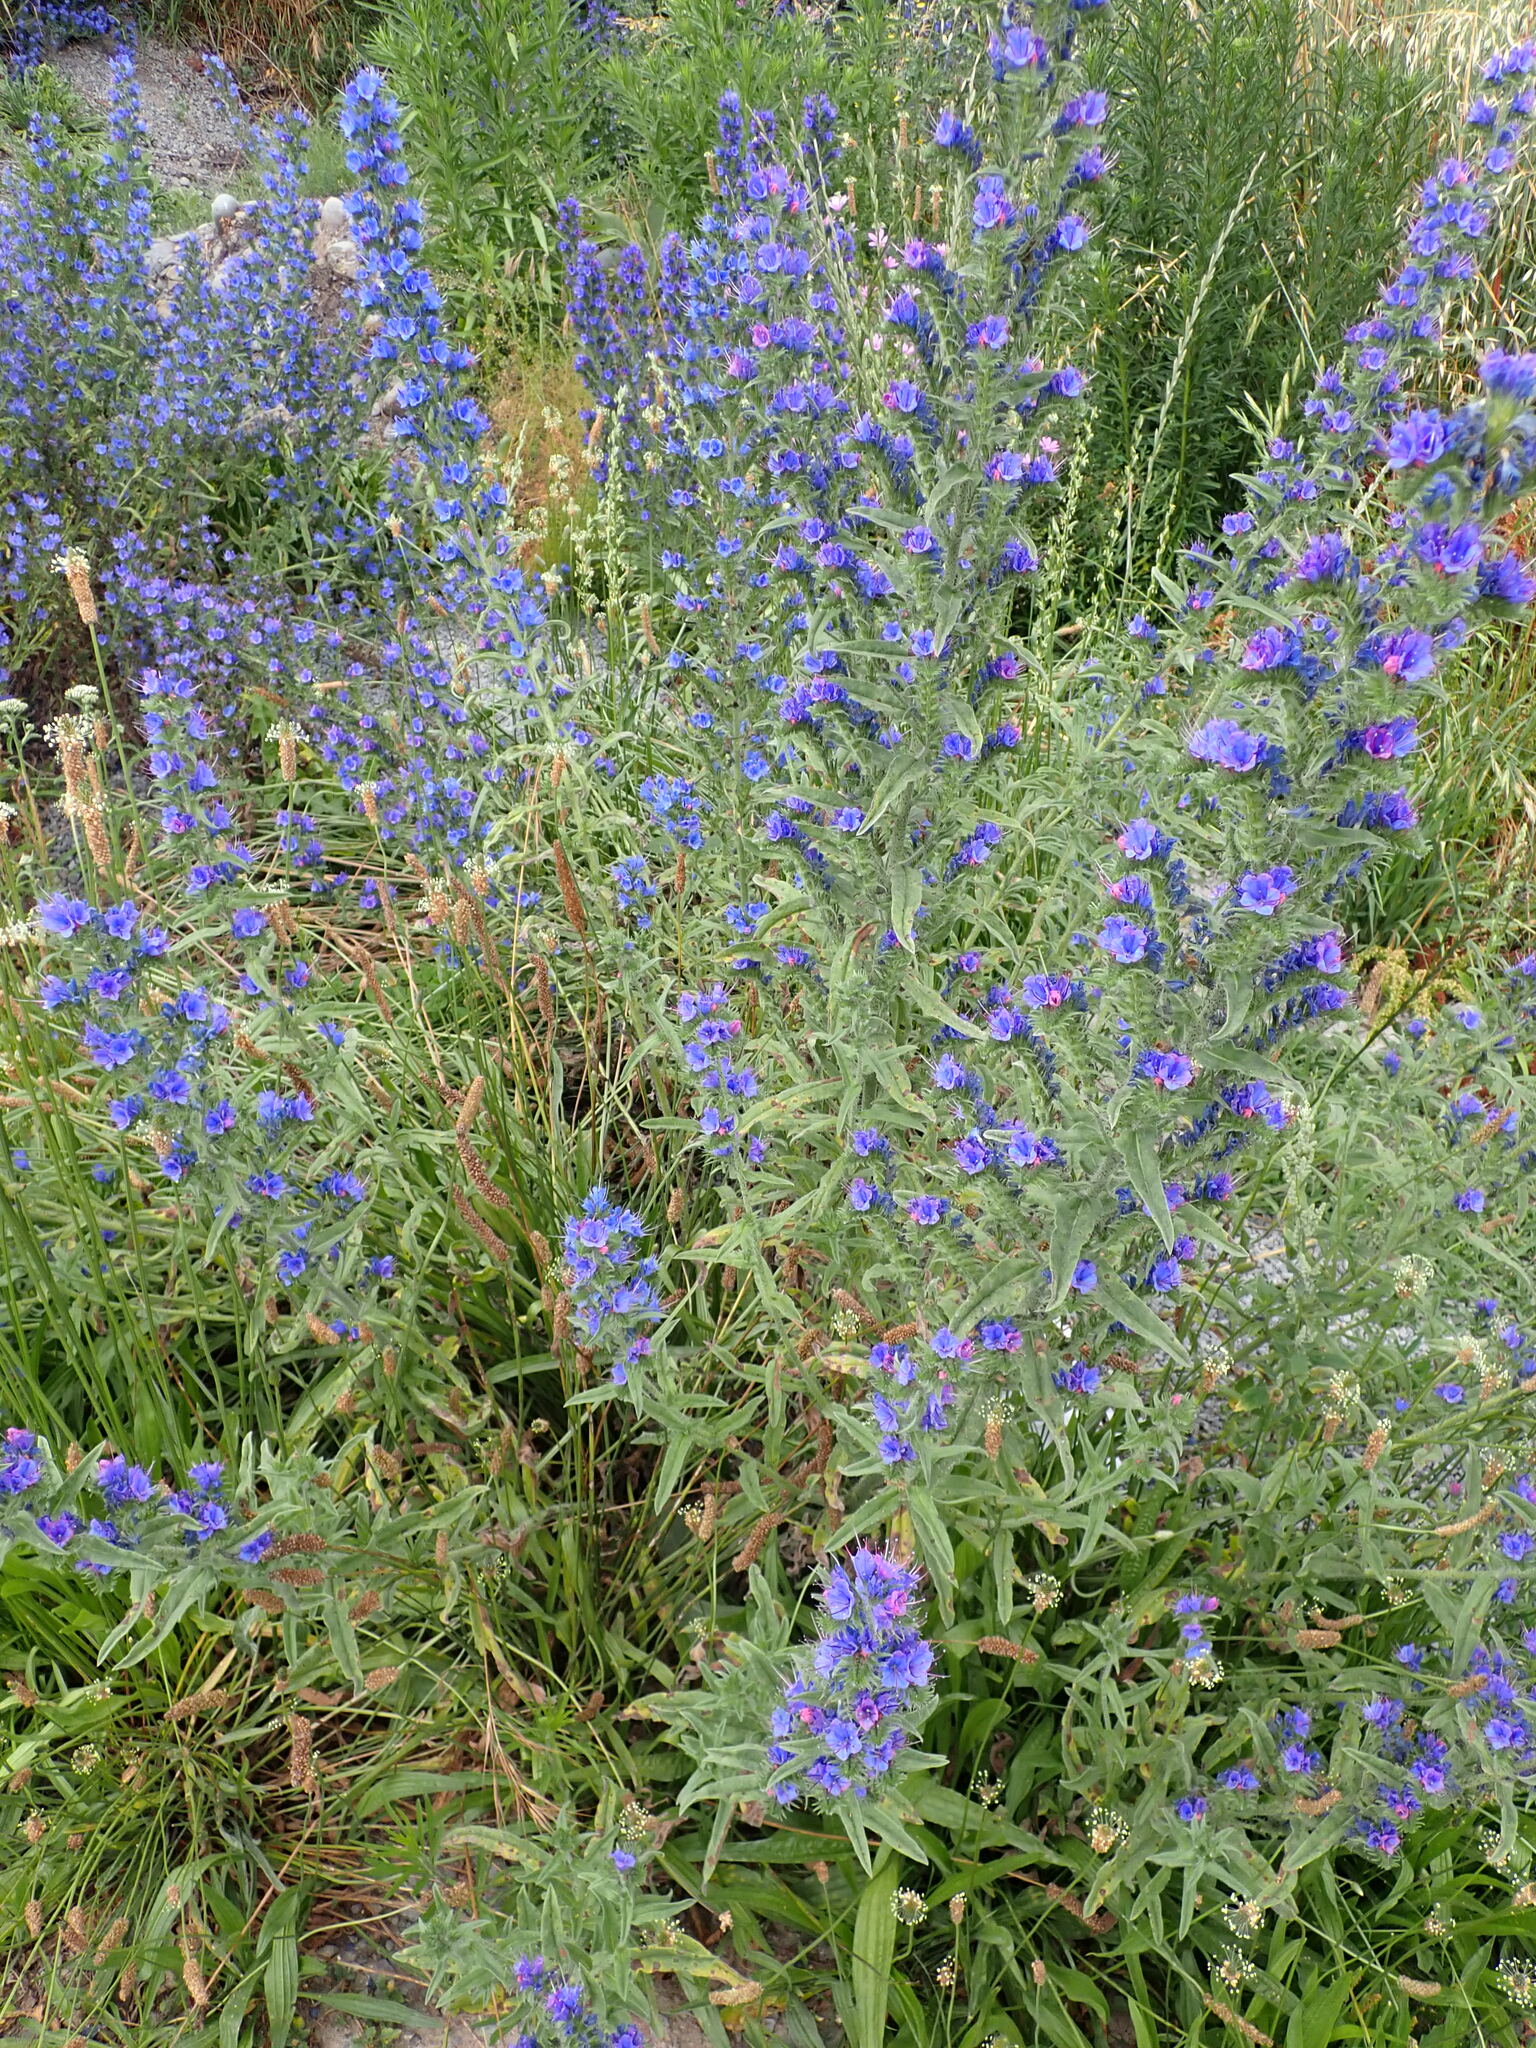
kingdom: Plantae
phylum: Tracheophyta
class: Magnoliopsida
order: Boraginales
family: Boraginaceae
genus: Echium
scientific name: Echium vulgare
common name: Common viper's bugloss
